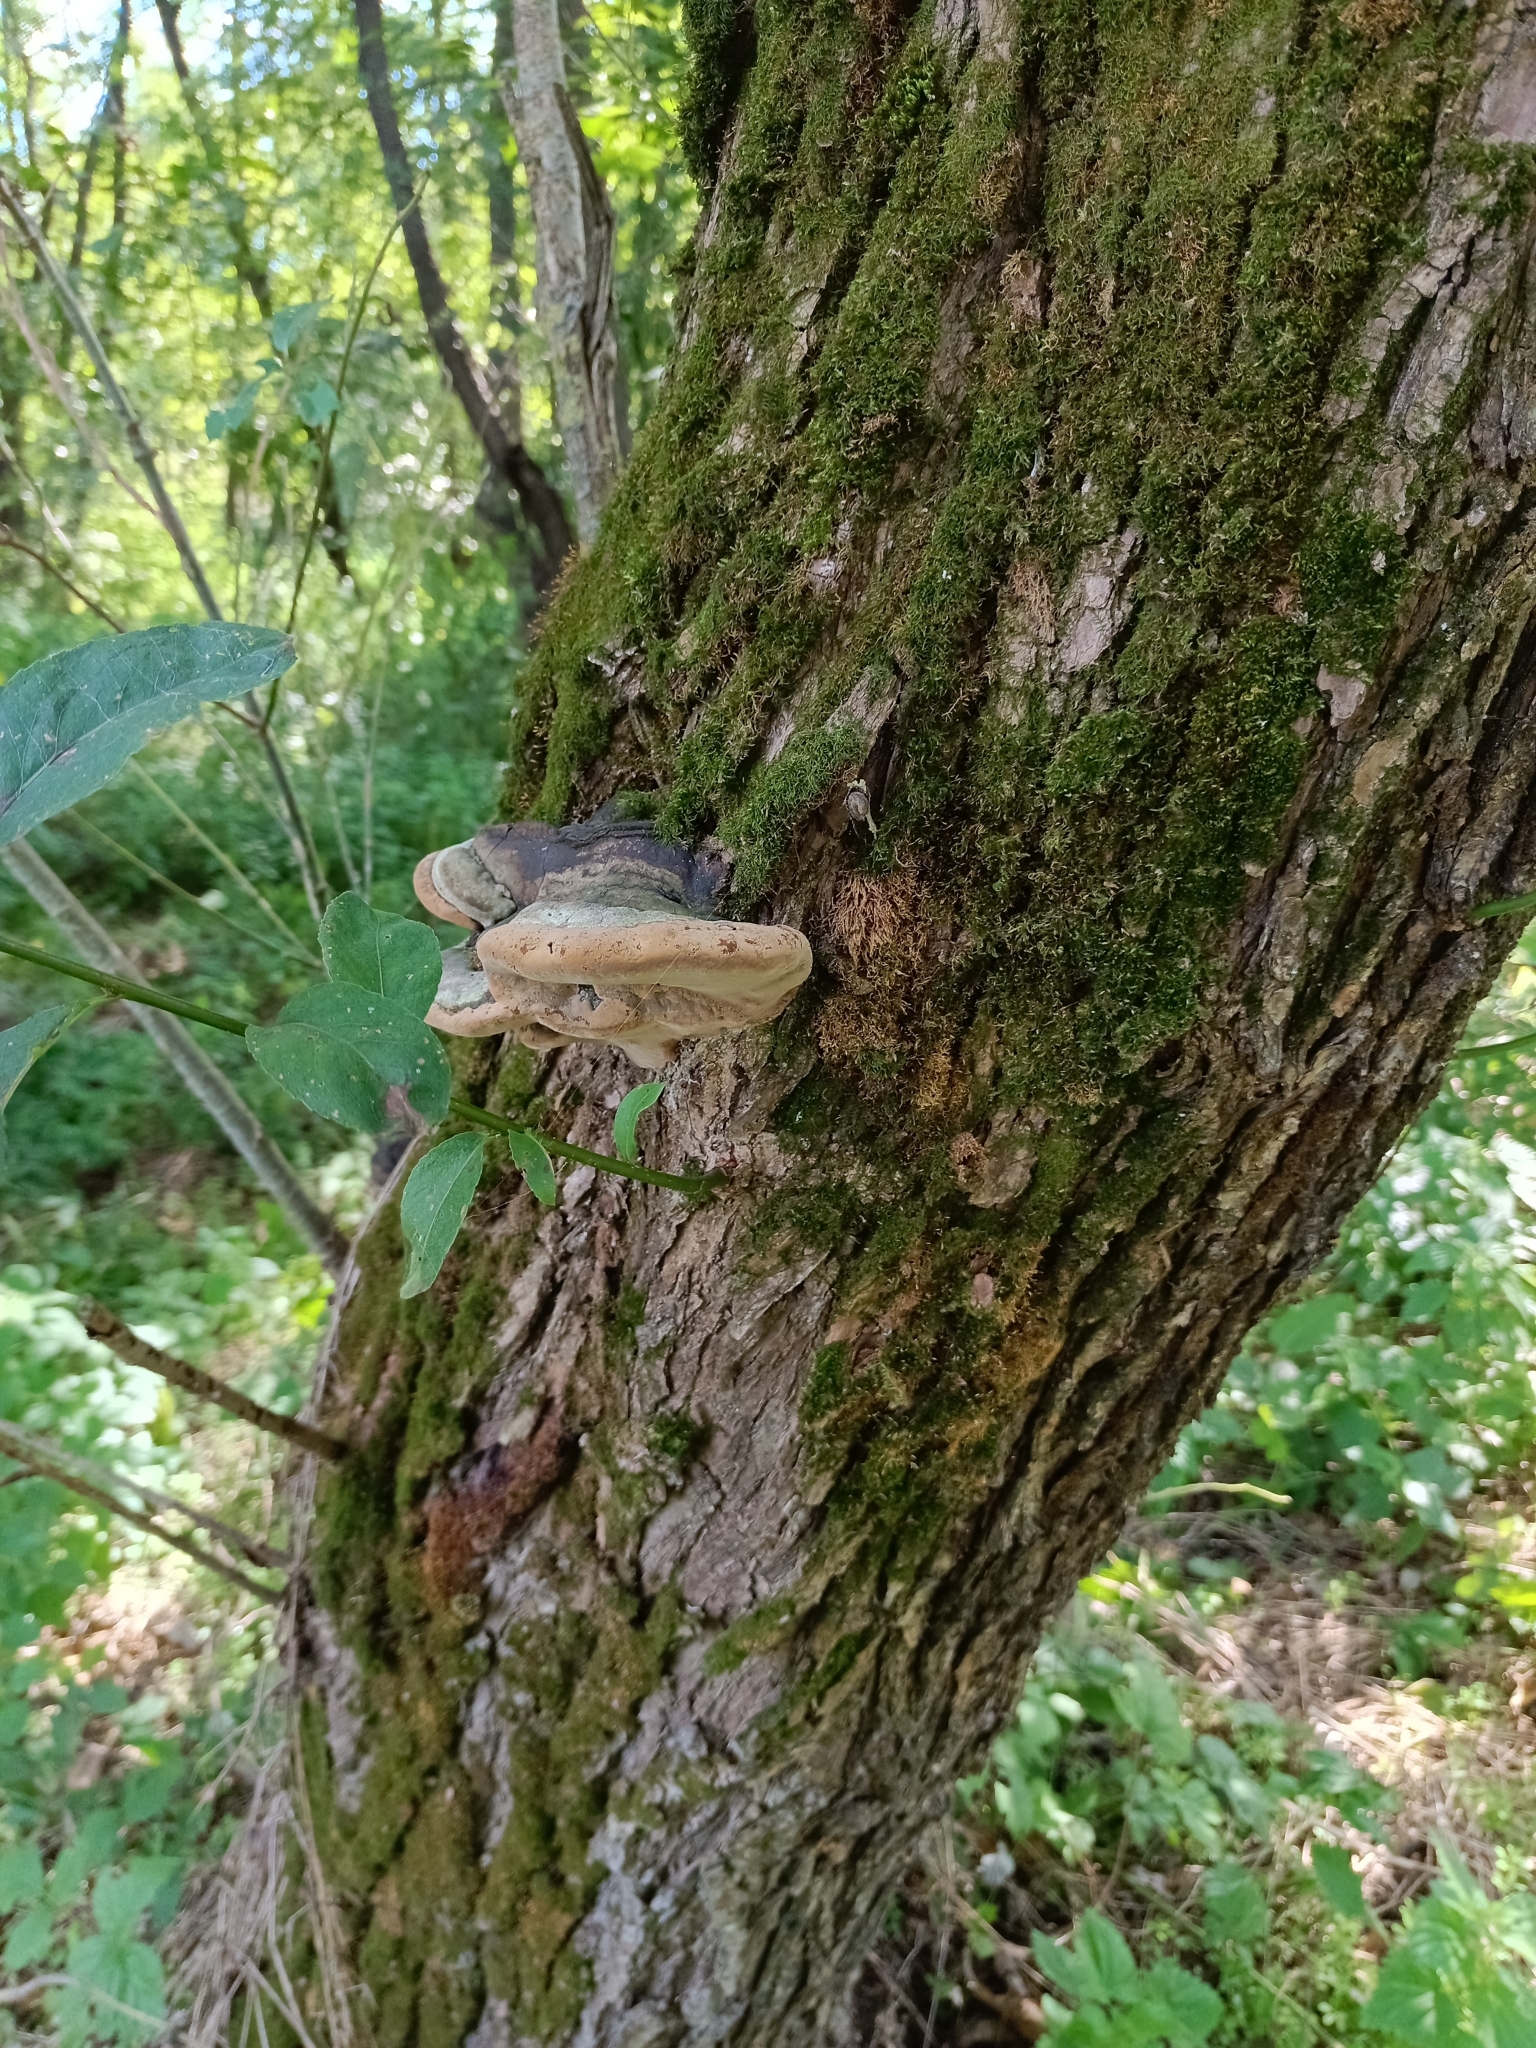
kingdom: Fungi
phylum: Basidiomycota
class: Agaricomycetes
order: Hymenochaetales
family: Hymenochaetaceae
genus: Phellinus
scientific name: Phellinus igniarius
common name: Willow bracket
